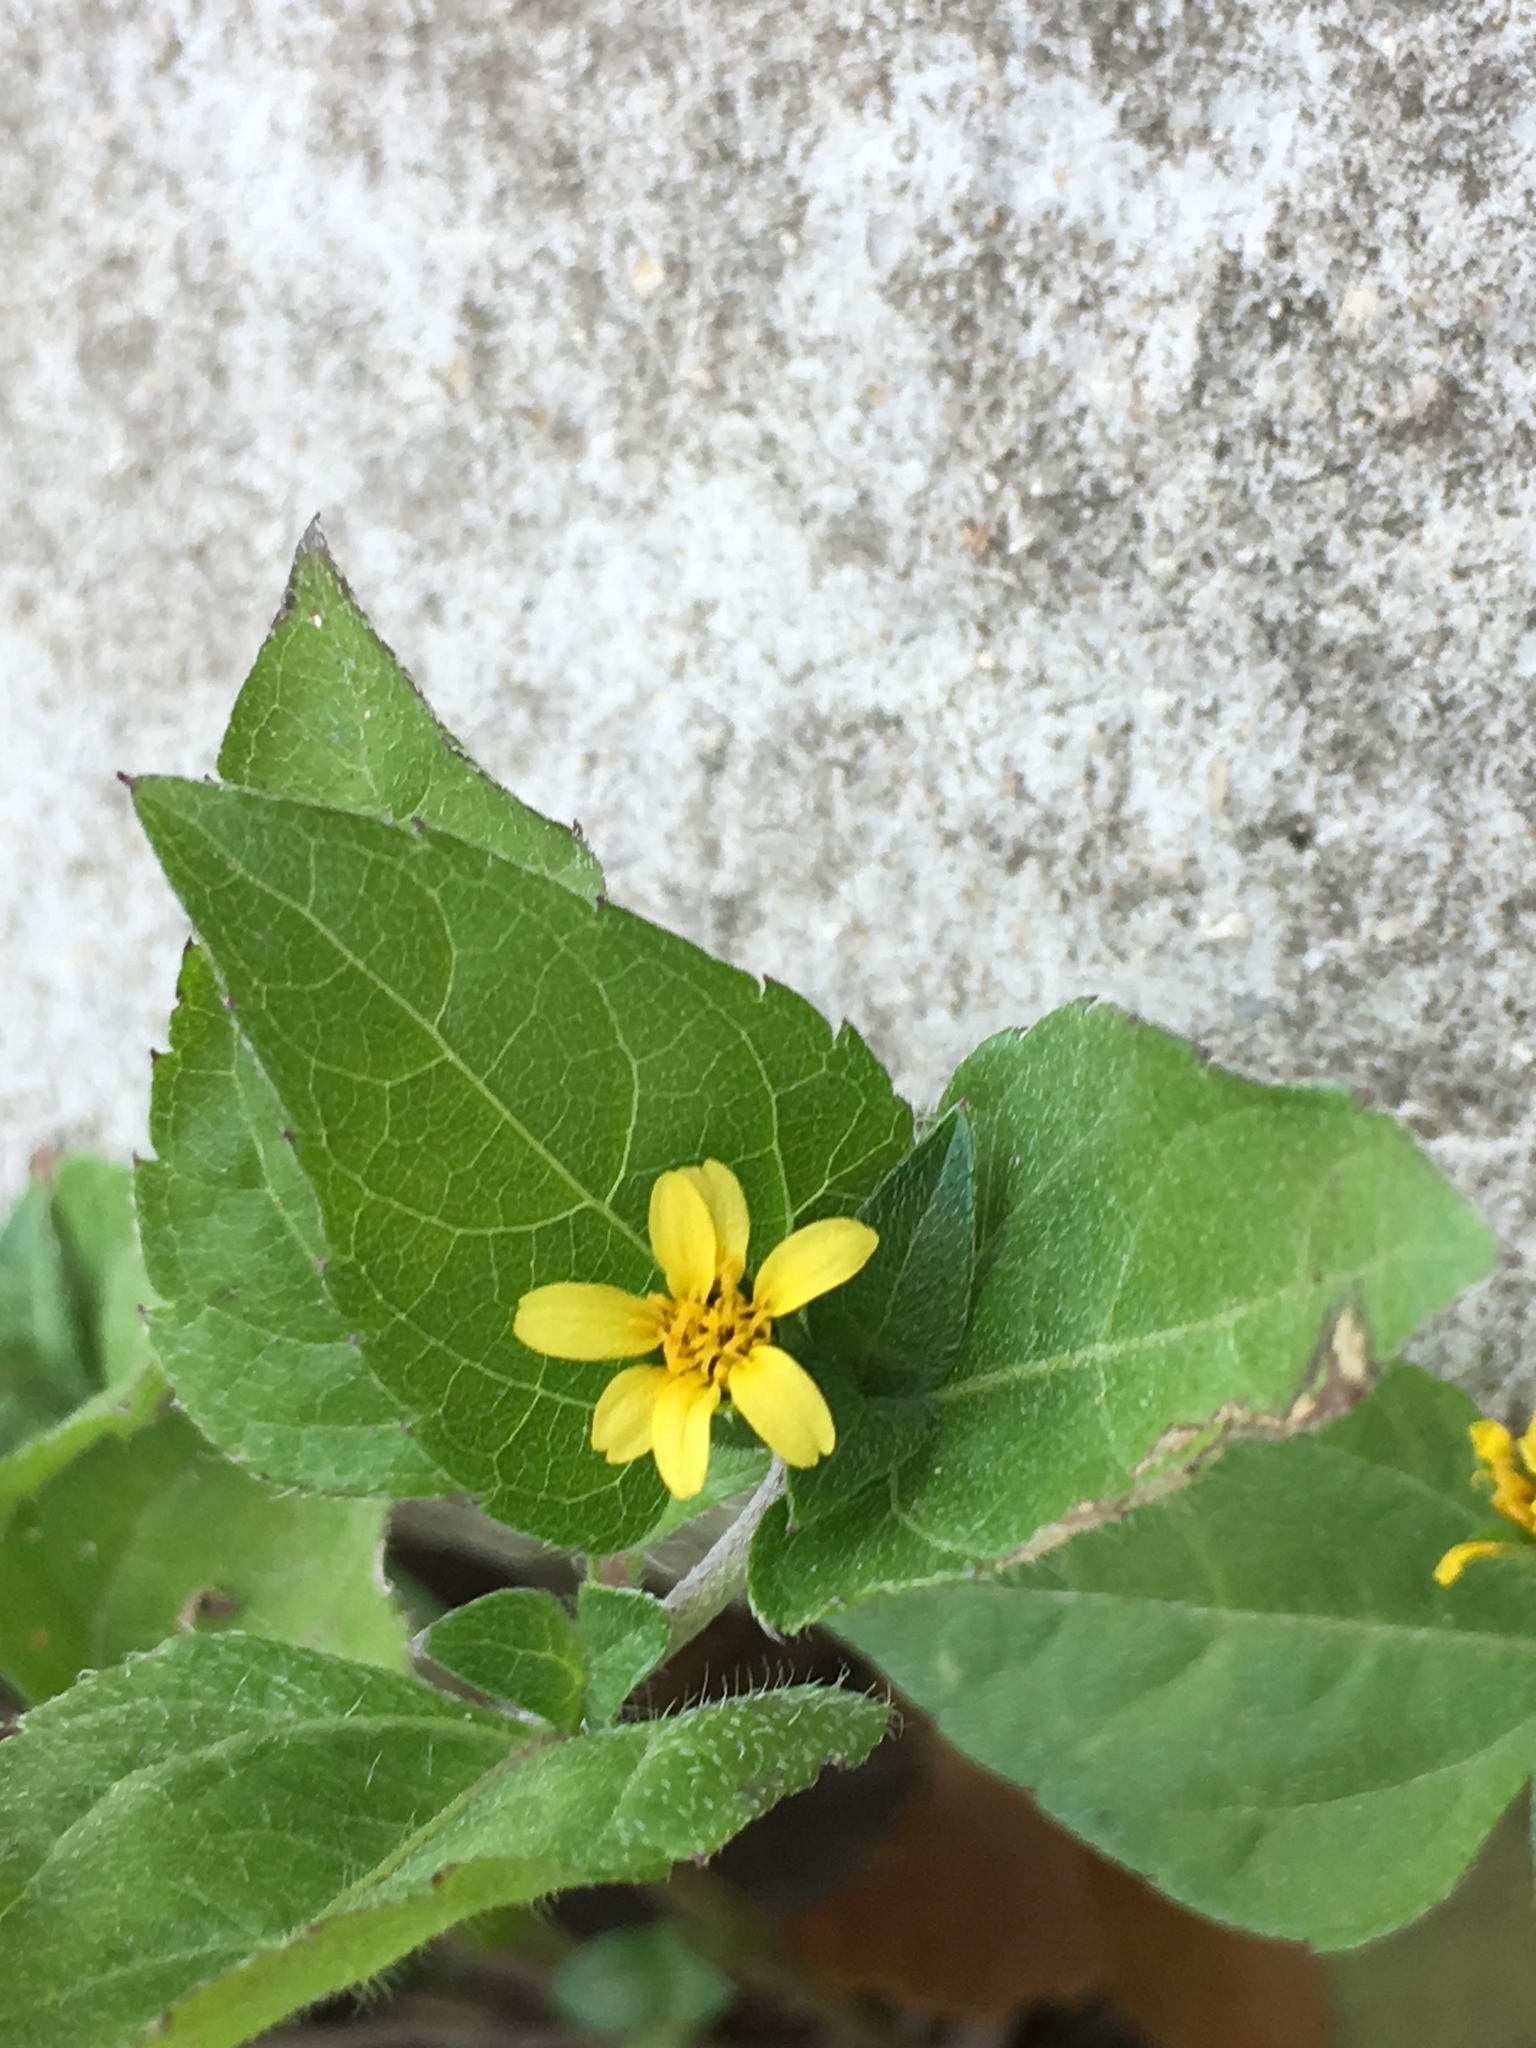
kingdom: Plantae
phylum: Tracheophyta
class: Magnoliopsida
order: Asterales
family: Asteraceae
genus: Calyptocarpus
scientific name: Calyptocarpus vialis
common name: Straggler daisy
